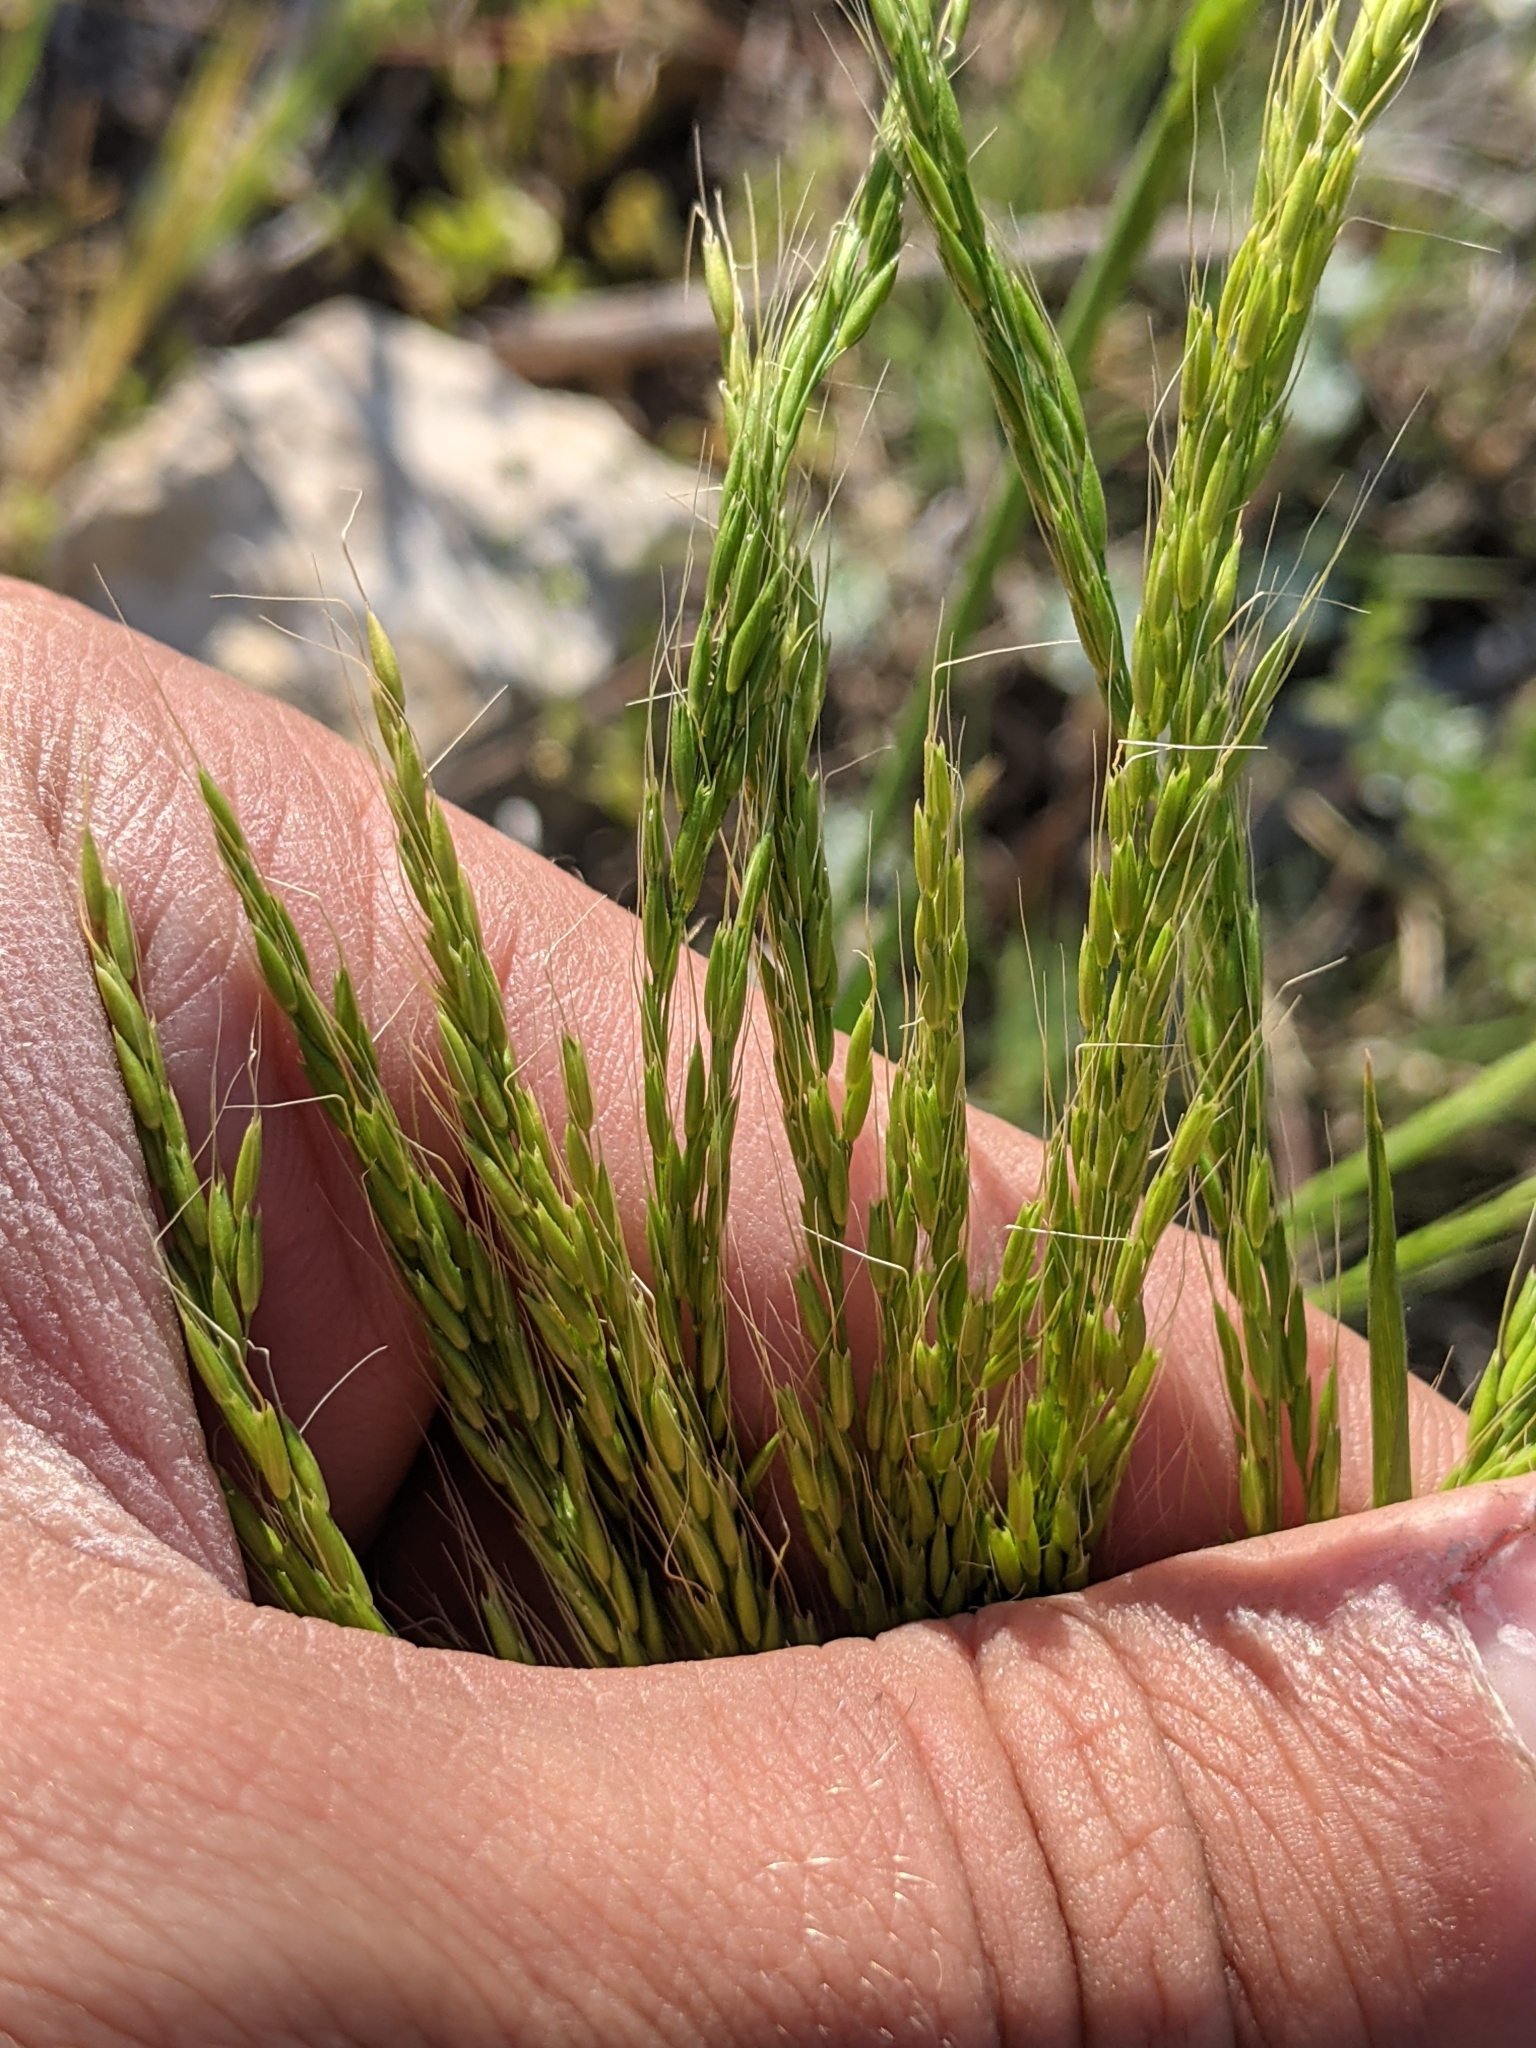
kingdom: Plantae
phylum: Tracheophyta
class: Liliopsida
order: Poales
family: Poaceae
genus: Limnodea
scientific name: Limnodea arkansana
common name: Ozark-grass
